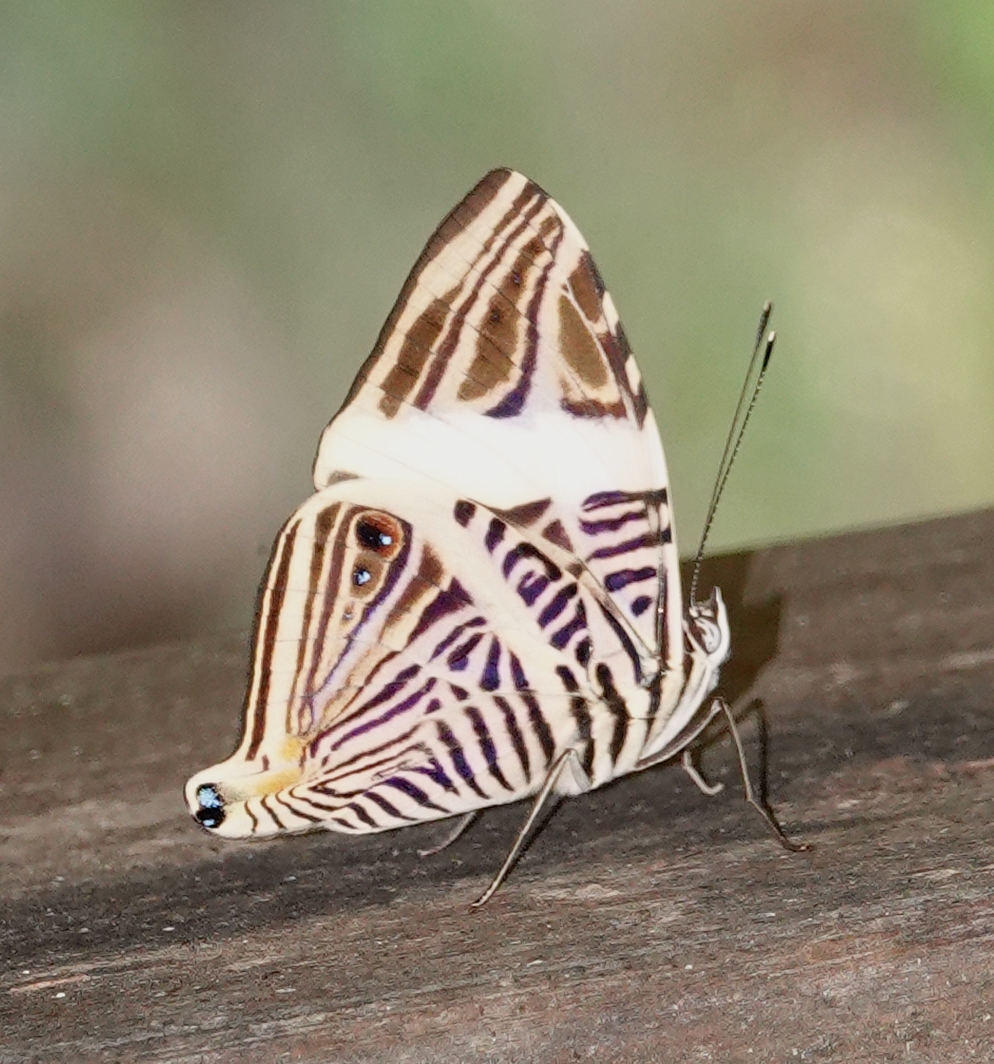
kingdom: Animalia
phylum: Arthropoda
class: Insecta
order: Lepidoptera
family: Nymphalidae
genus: Colobura
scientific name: Colobura dirce
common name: Dirce beauty
